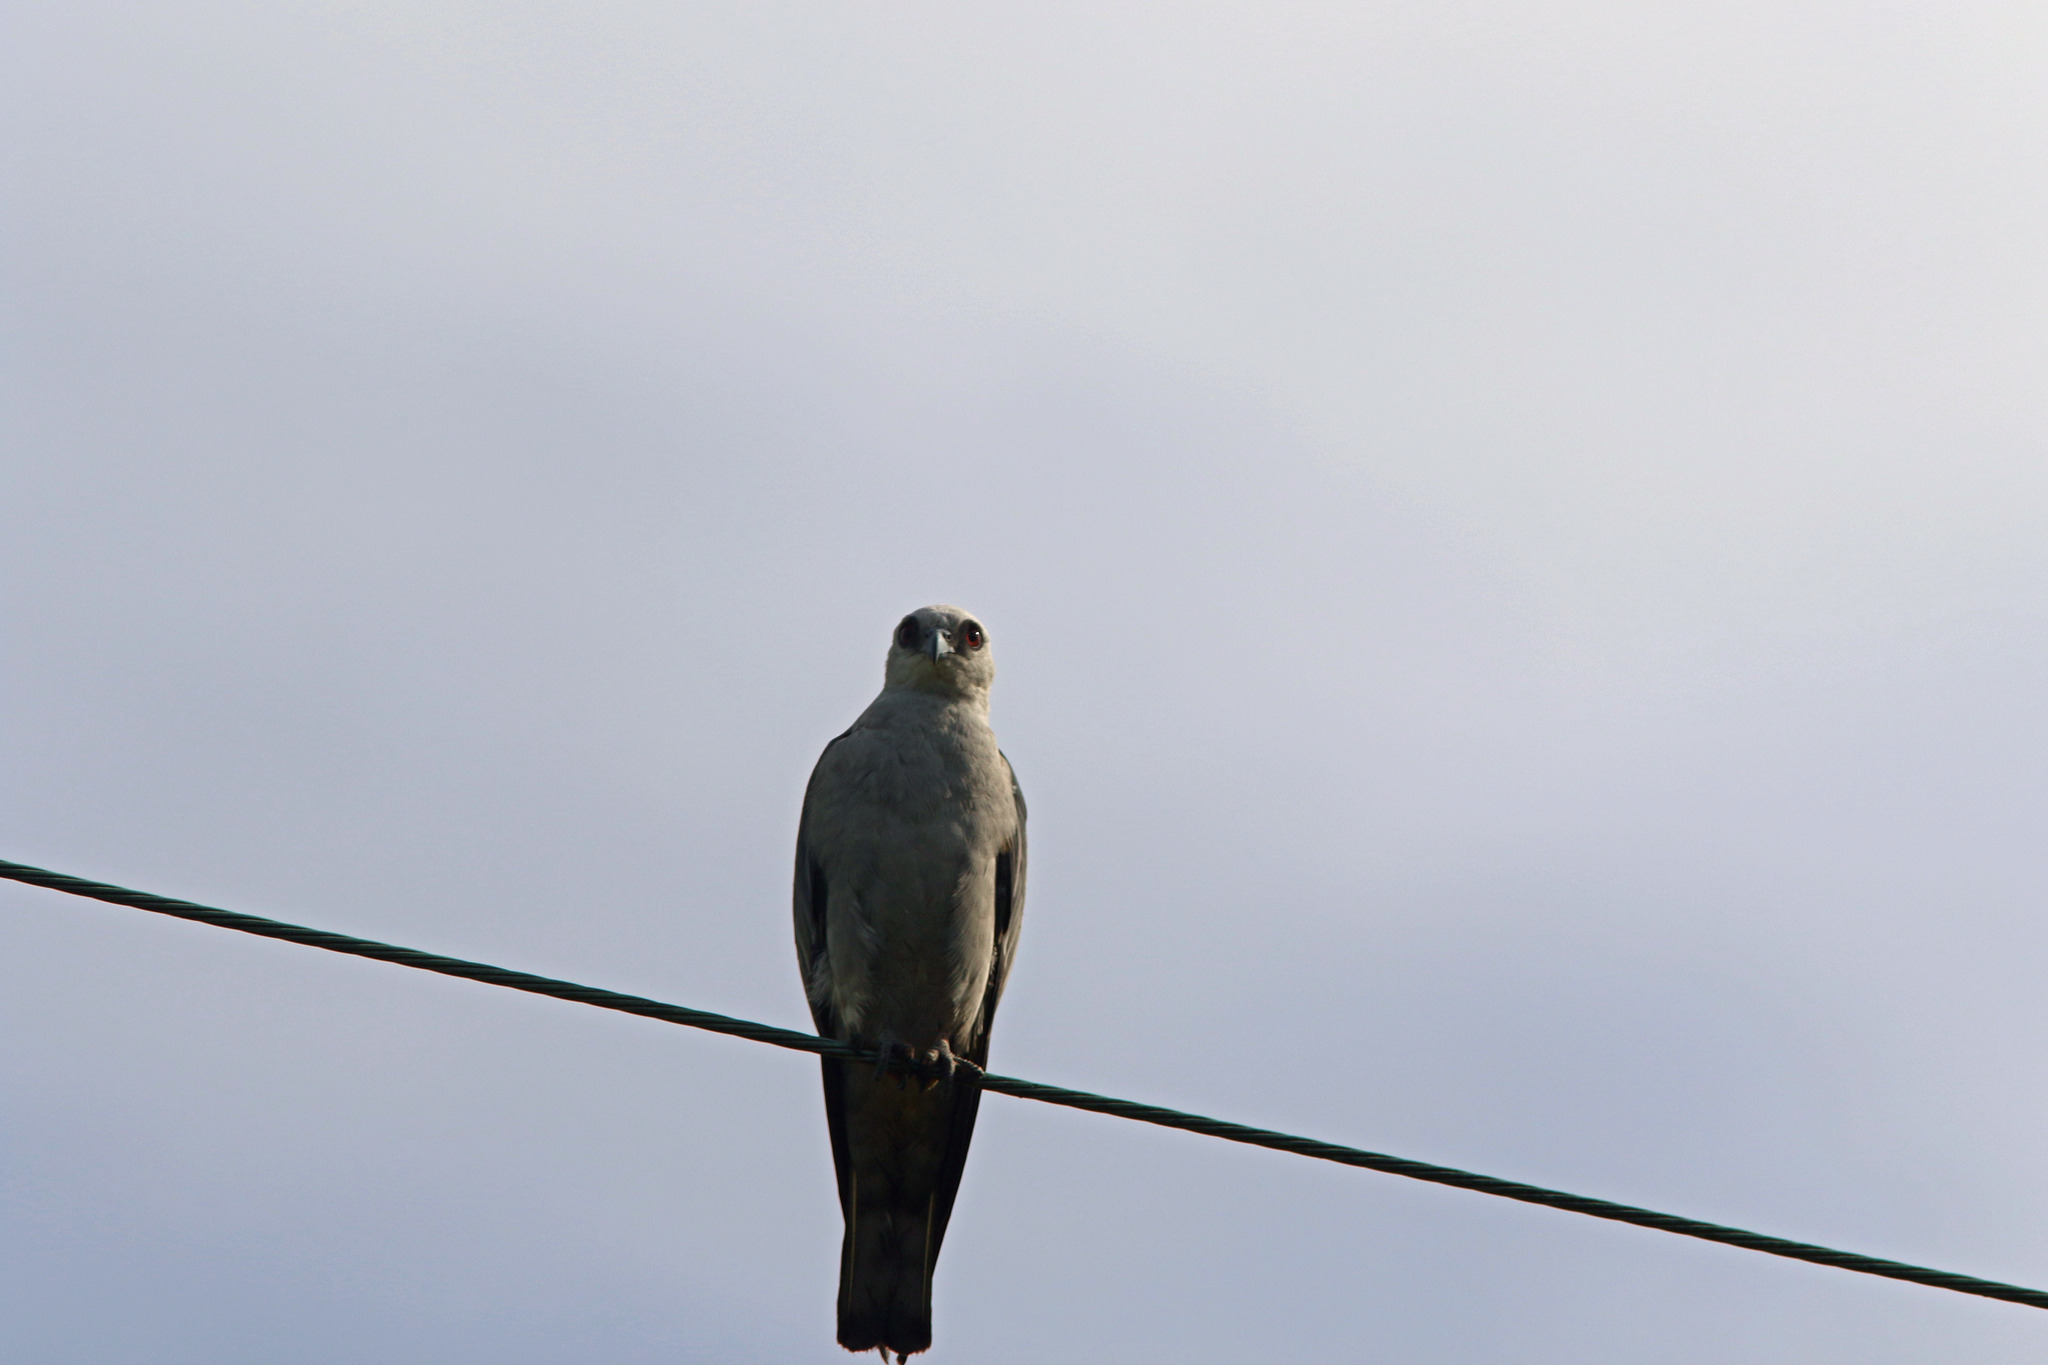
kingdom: Animalia
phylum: Chordata
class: Aves
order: Accipitriformes
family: Accipitridae
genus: Ictinia
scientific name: Ictinia mississippiensis
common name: Mississippi kite
